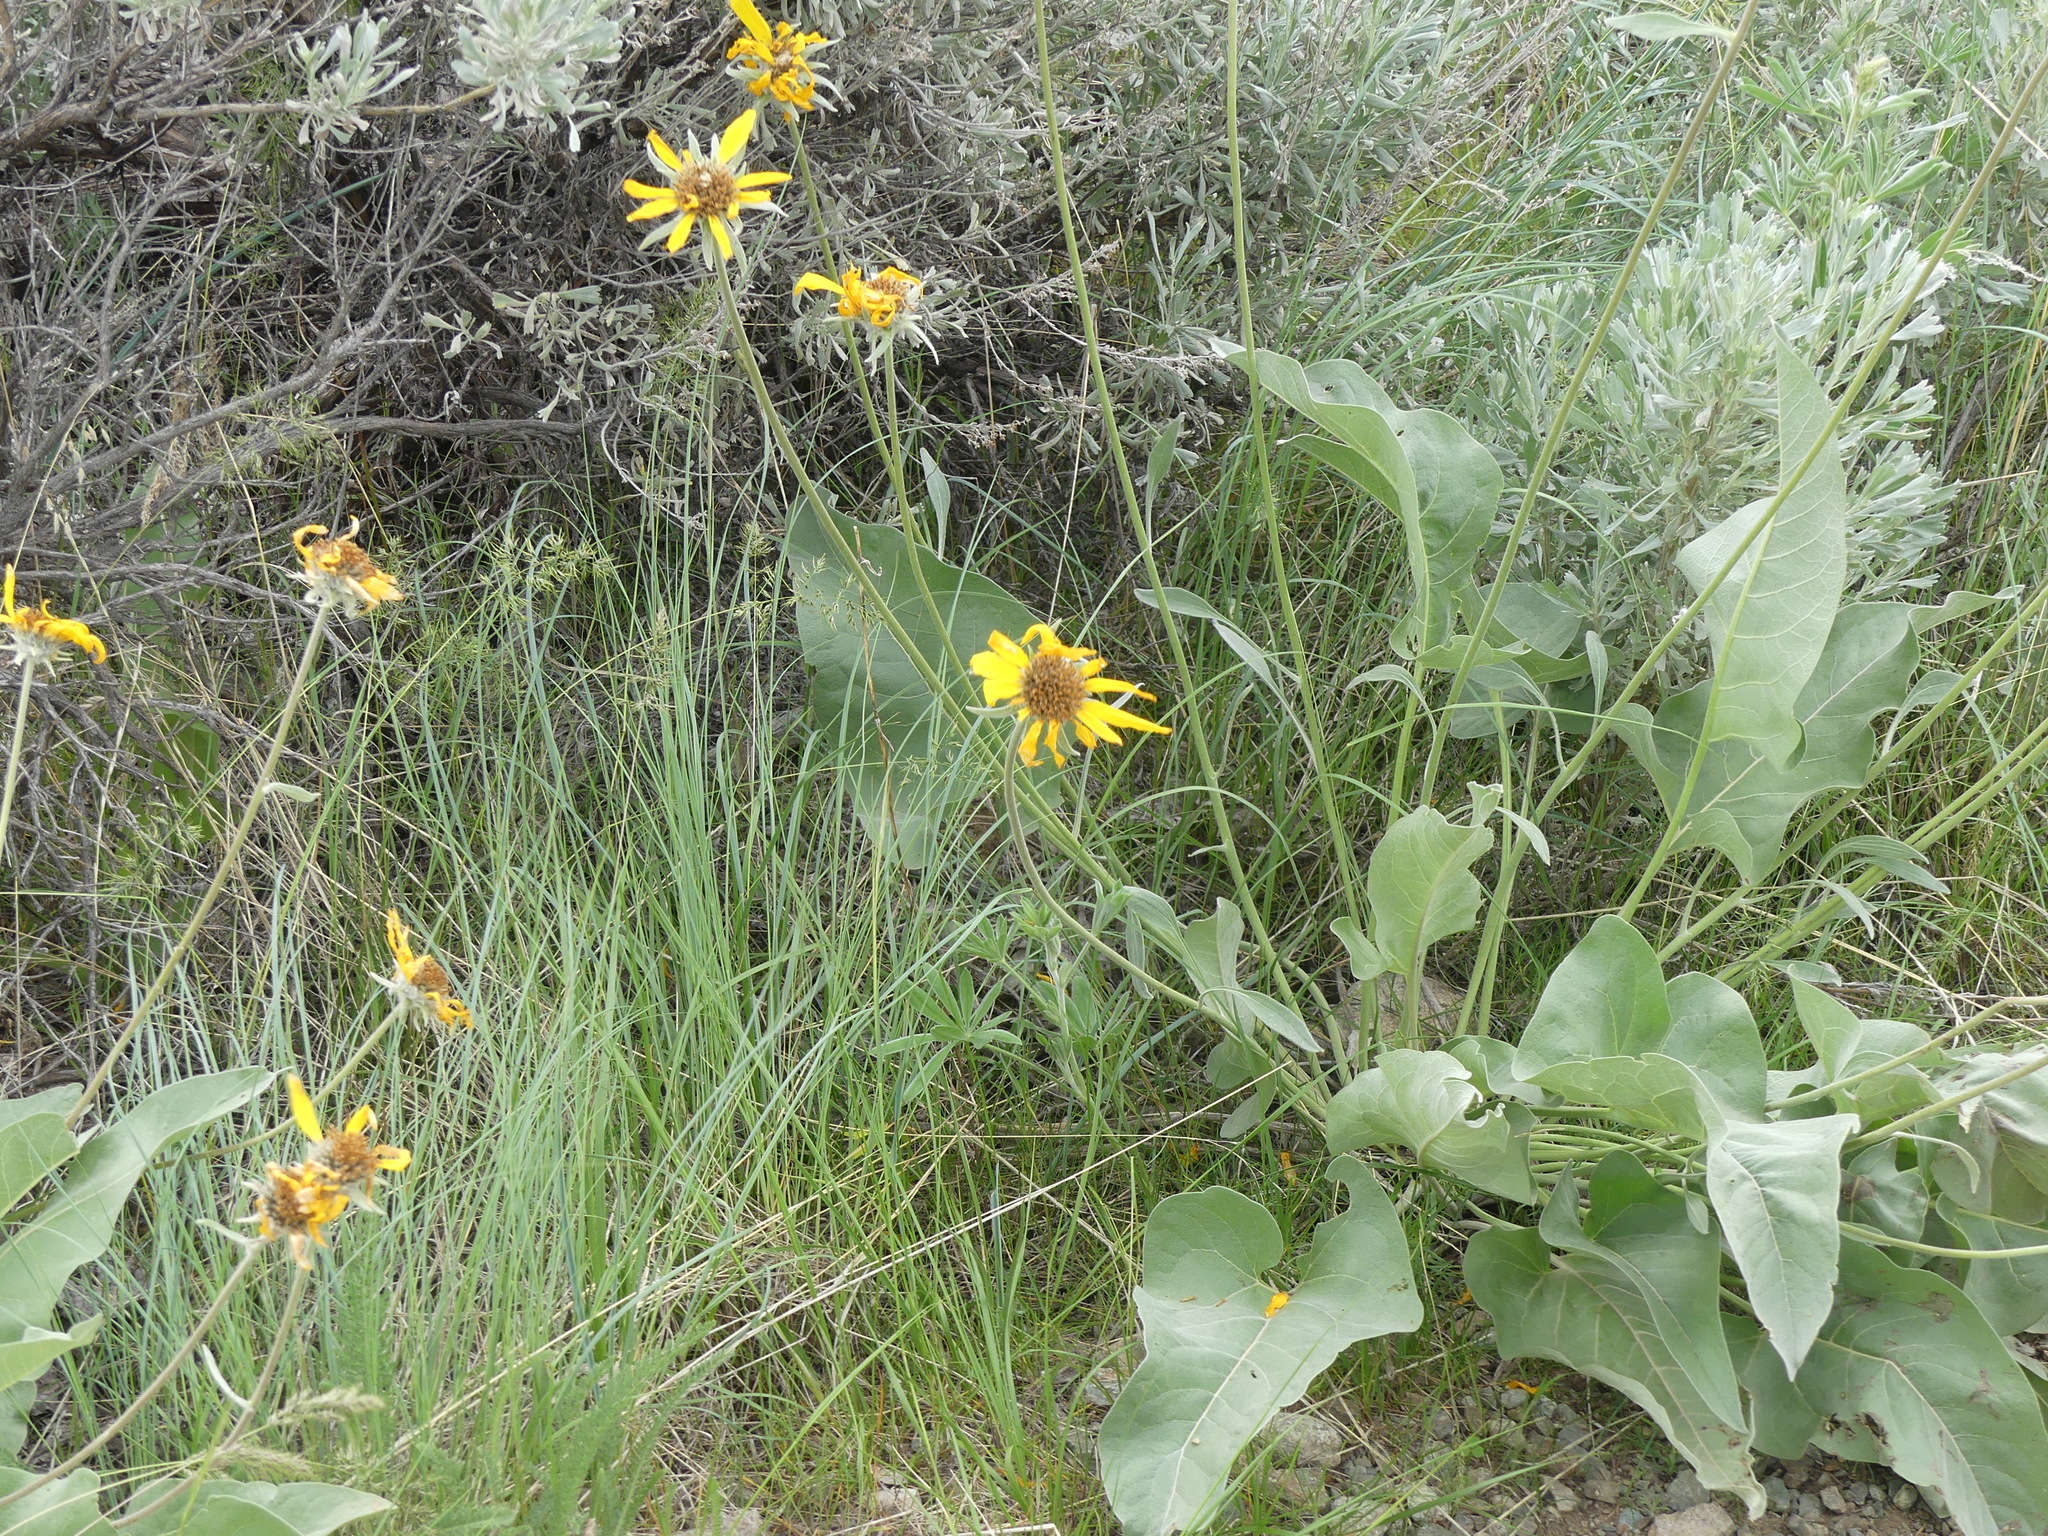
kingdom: Plantae
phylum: Tracheophyta
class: Magnoliopsida
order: Asterales
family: Asteraceae
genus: Wyethia
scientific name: Wyethia sagittata
